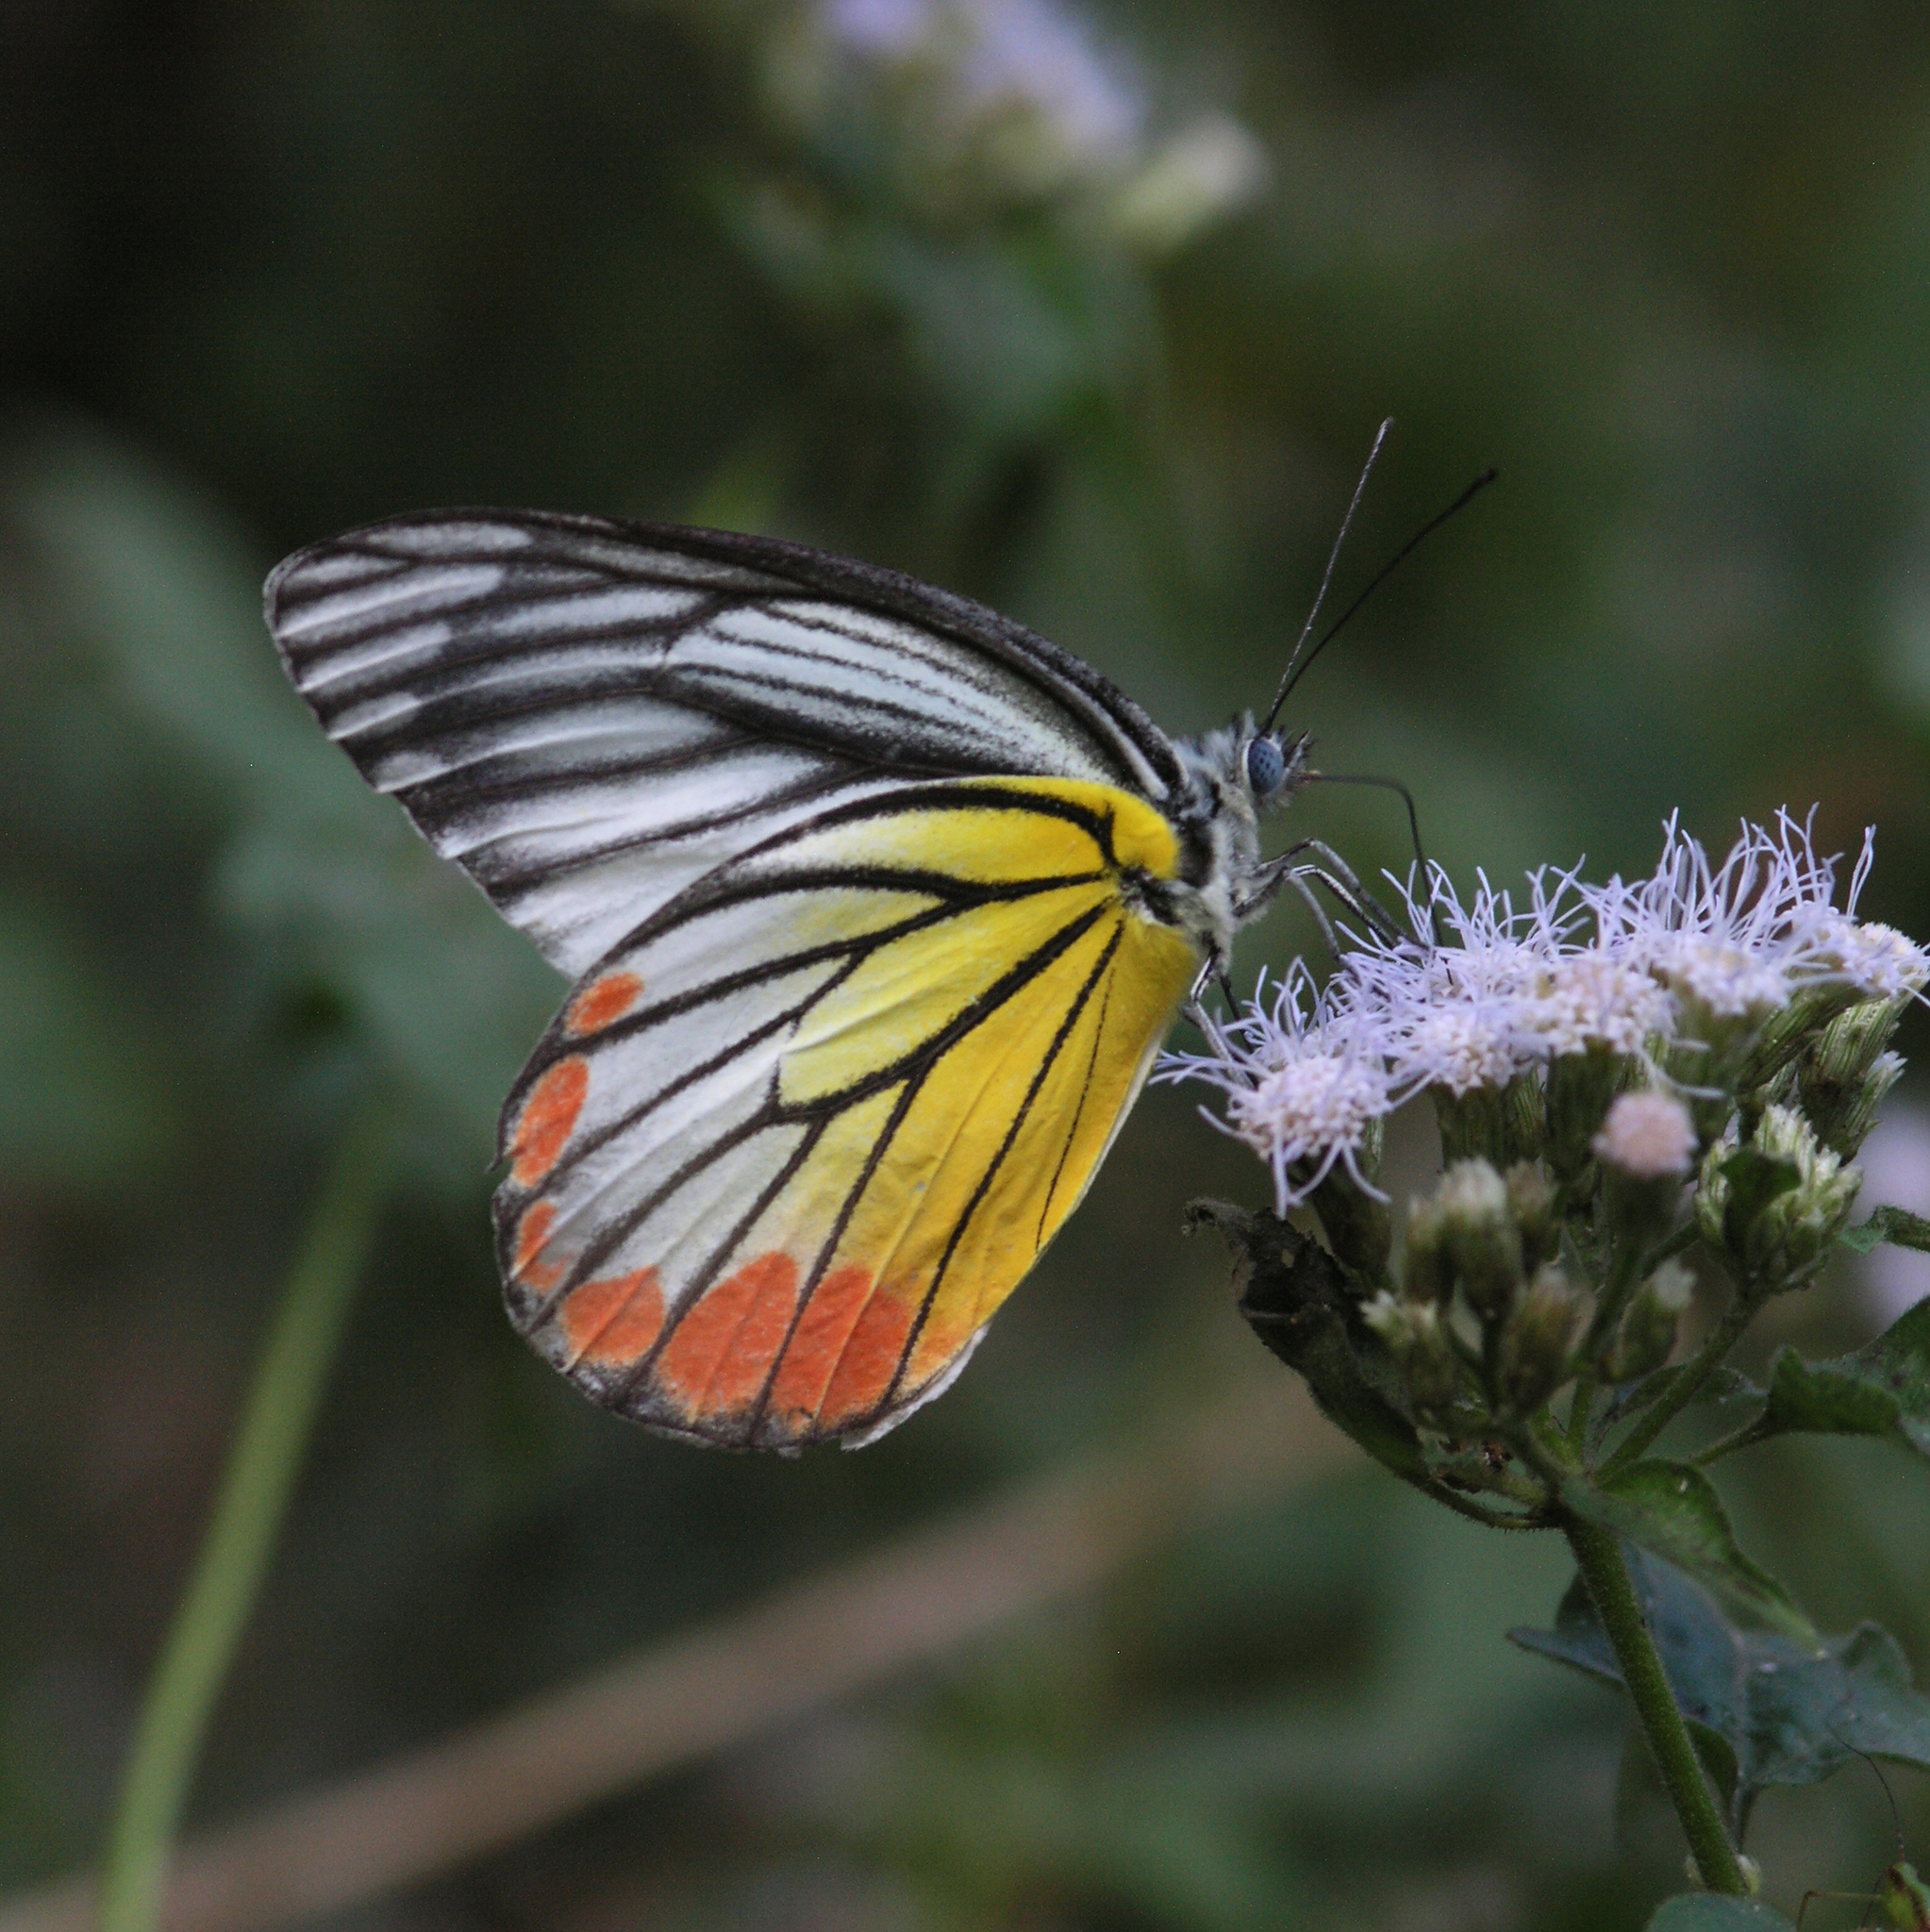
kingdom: Plantae
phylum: Tracheophyta
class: Magnoliopsida
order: Asterales
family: Asteraceae
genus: Chromolaena
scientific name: Chromolaena odorata
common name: Siamweed
